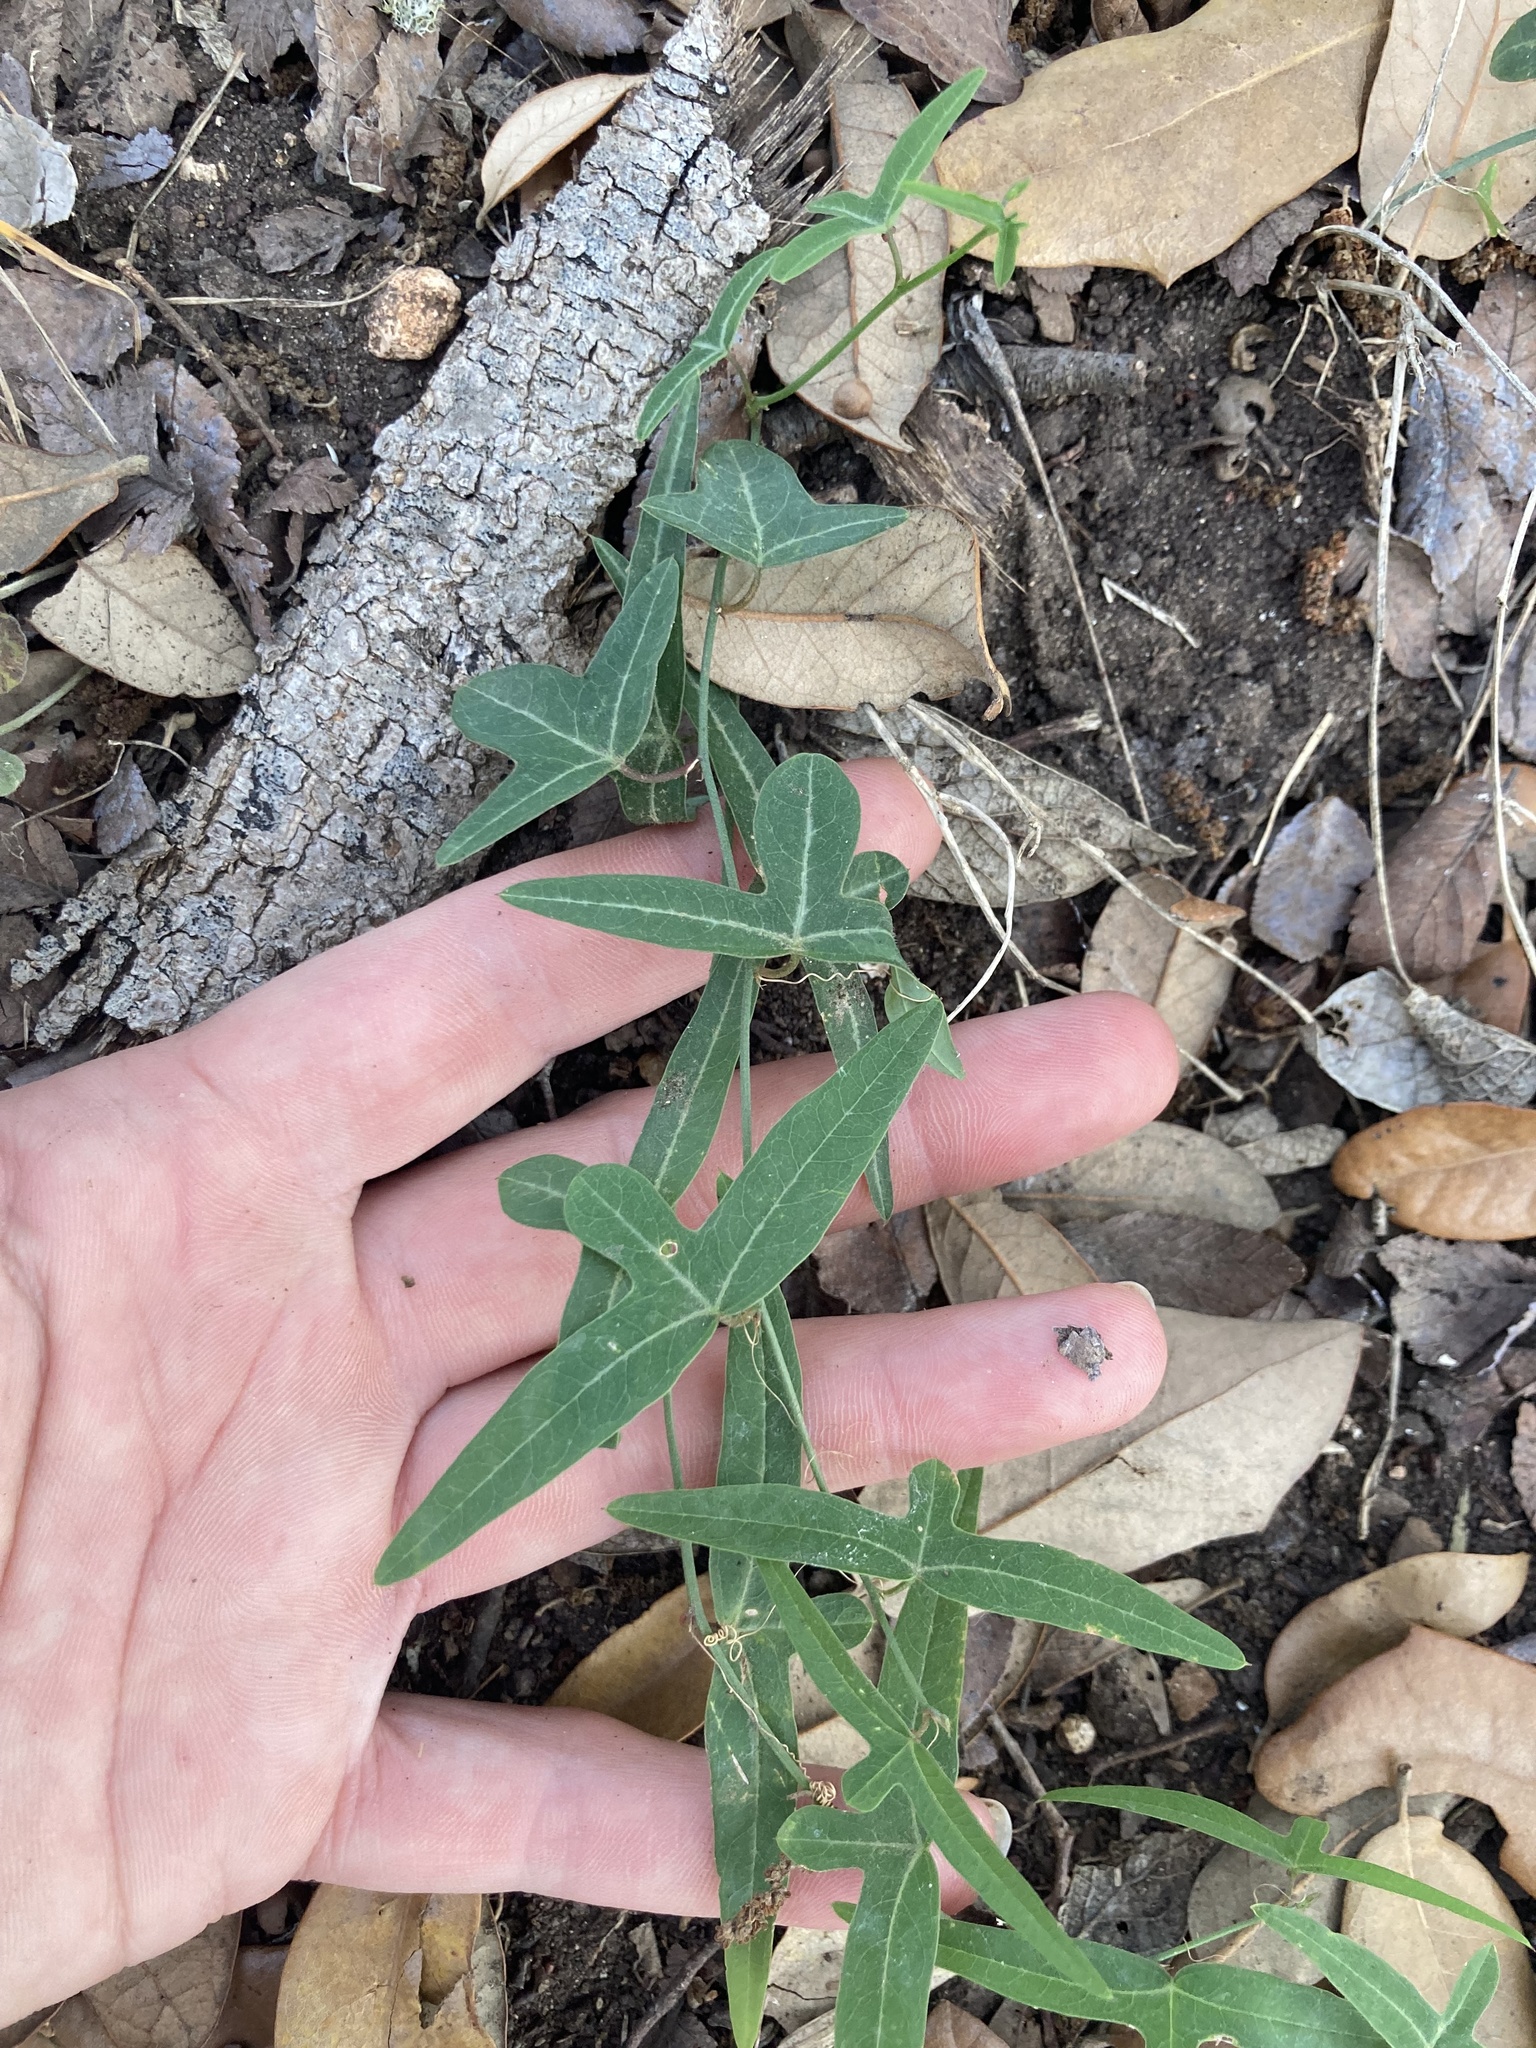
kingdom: Plantae
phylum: Tracheophyta
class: Magnoliopsida
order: Malpighiales
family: Passifloraceae
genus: Passiflora
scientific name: Passiflora tenuiloba
